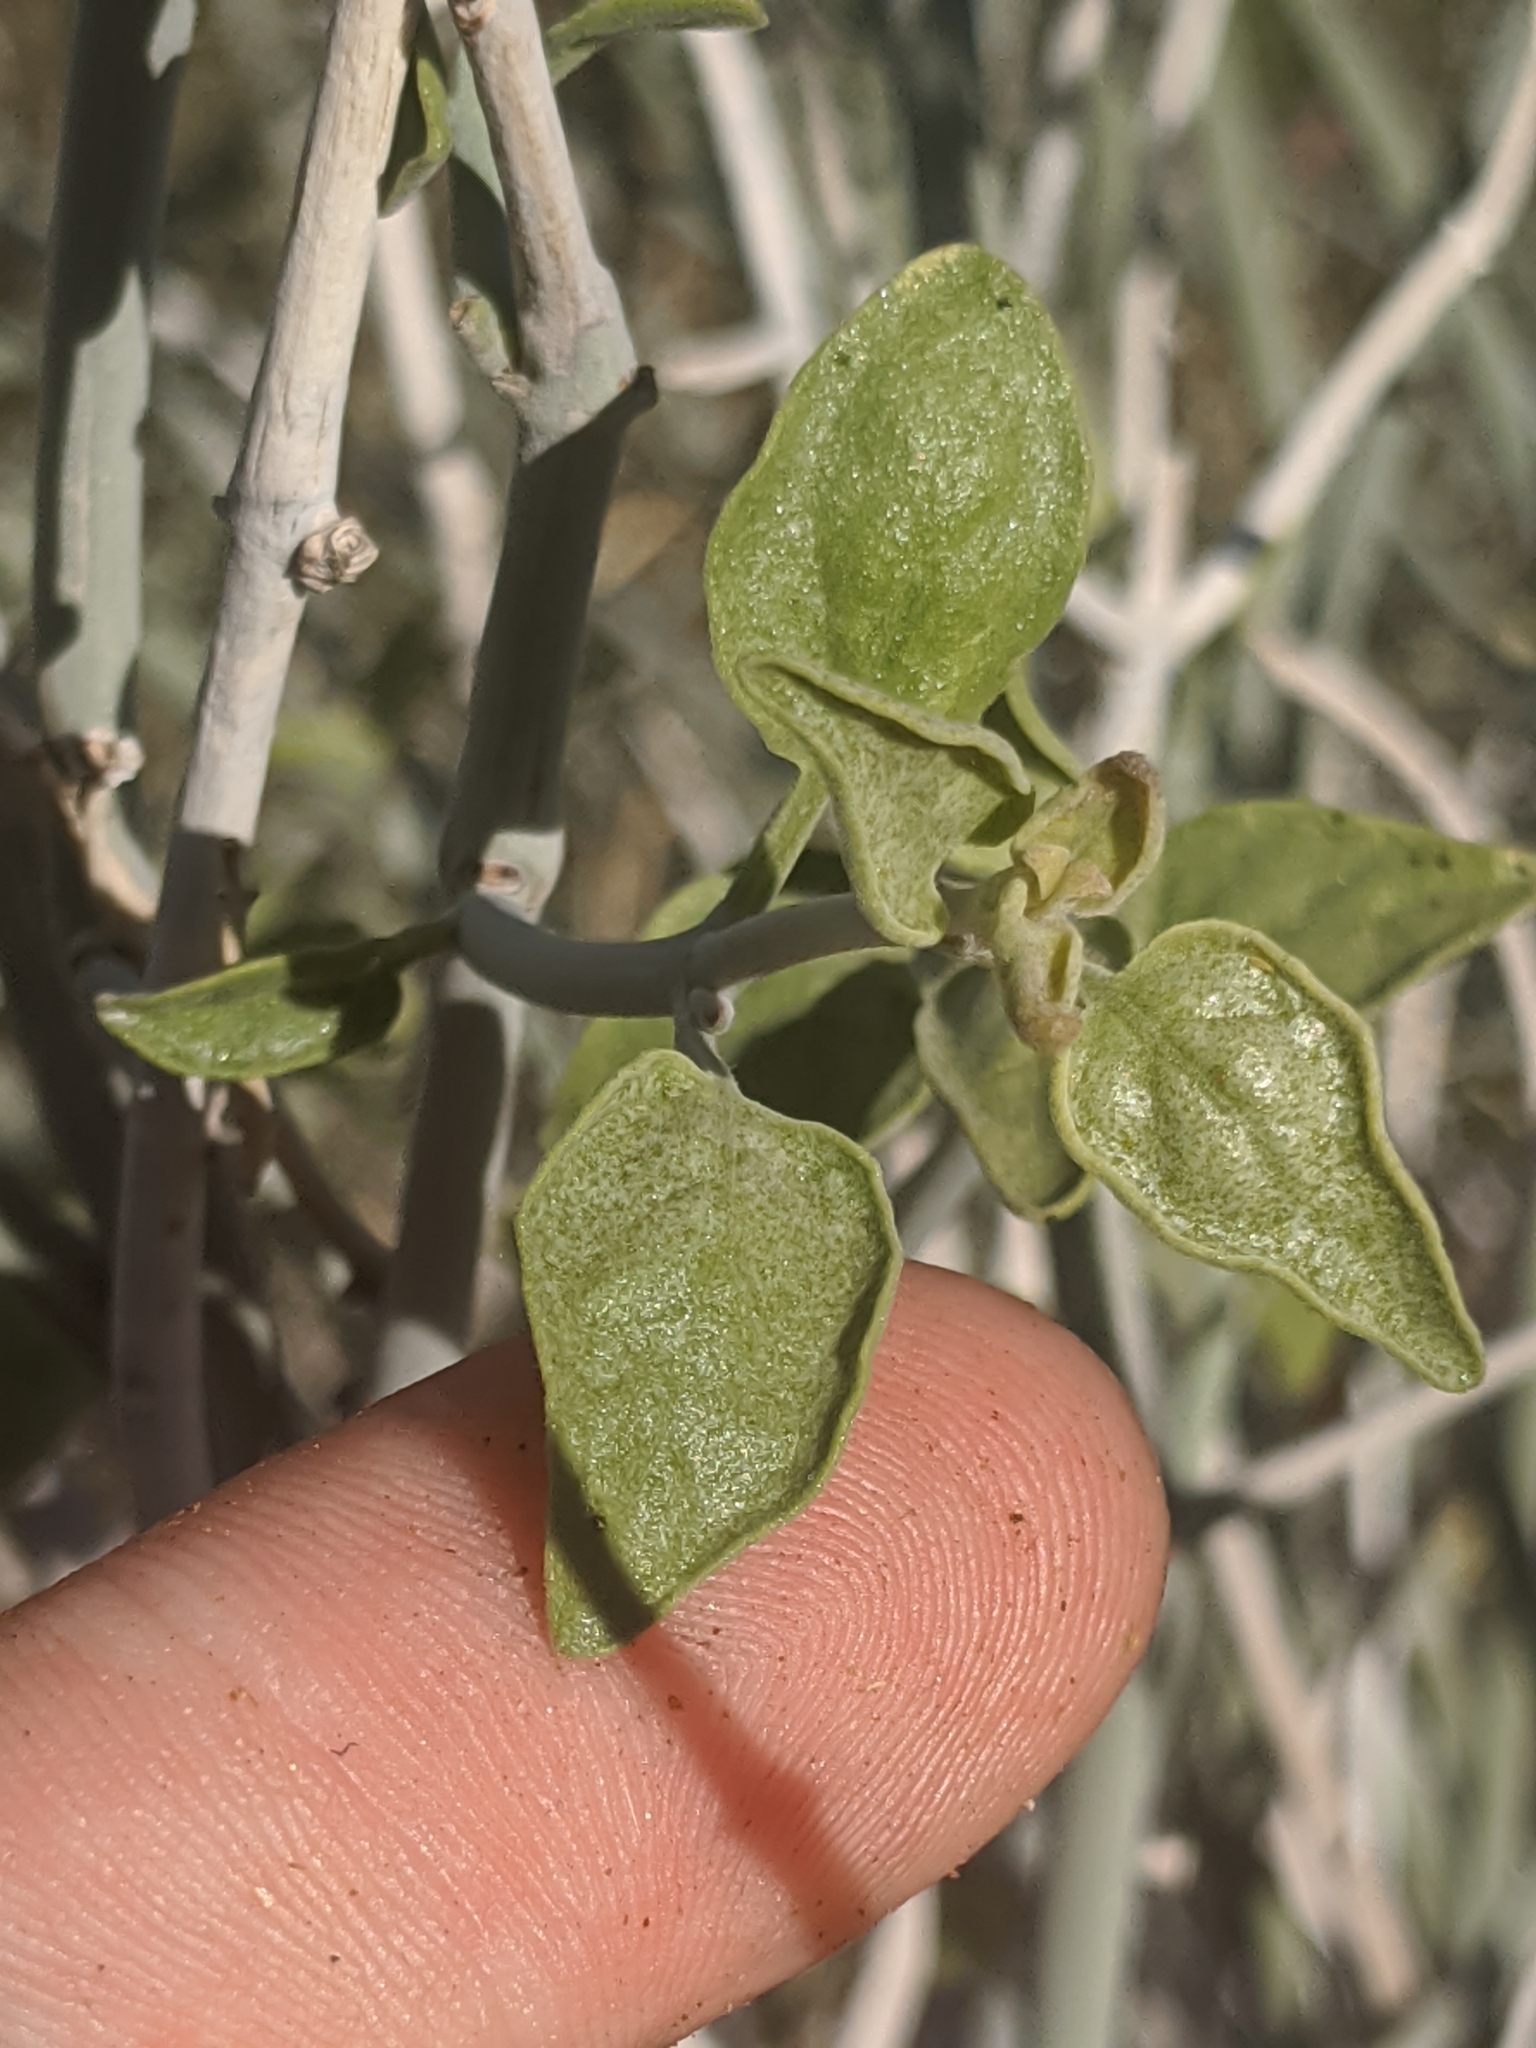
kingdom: Plantae
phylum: Tracheophyta
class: Magnoliopsida
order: Lamiales
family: Acanthaceae
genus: Justicia
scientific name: Justicia californica
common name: Chuparosa-honeysuckle
